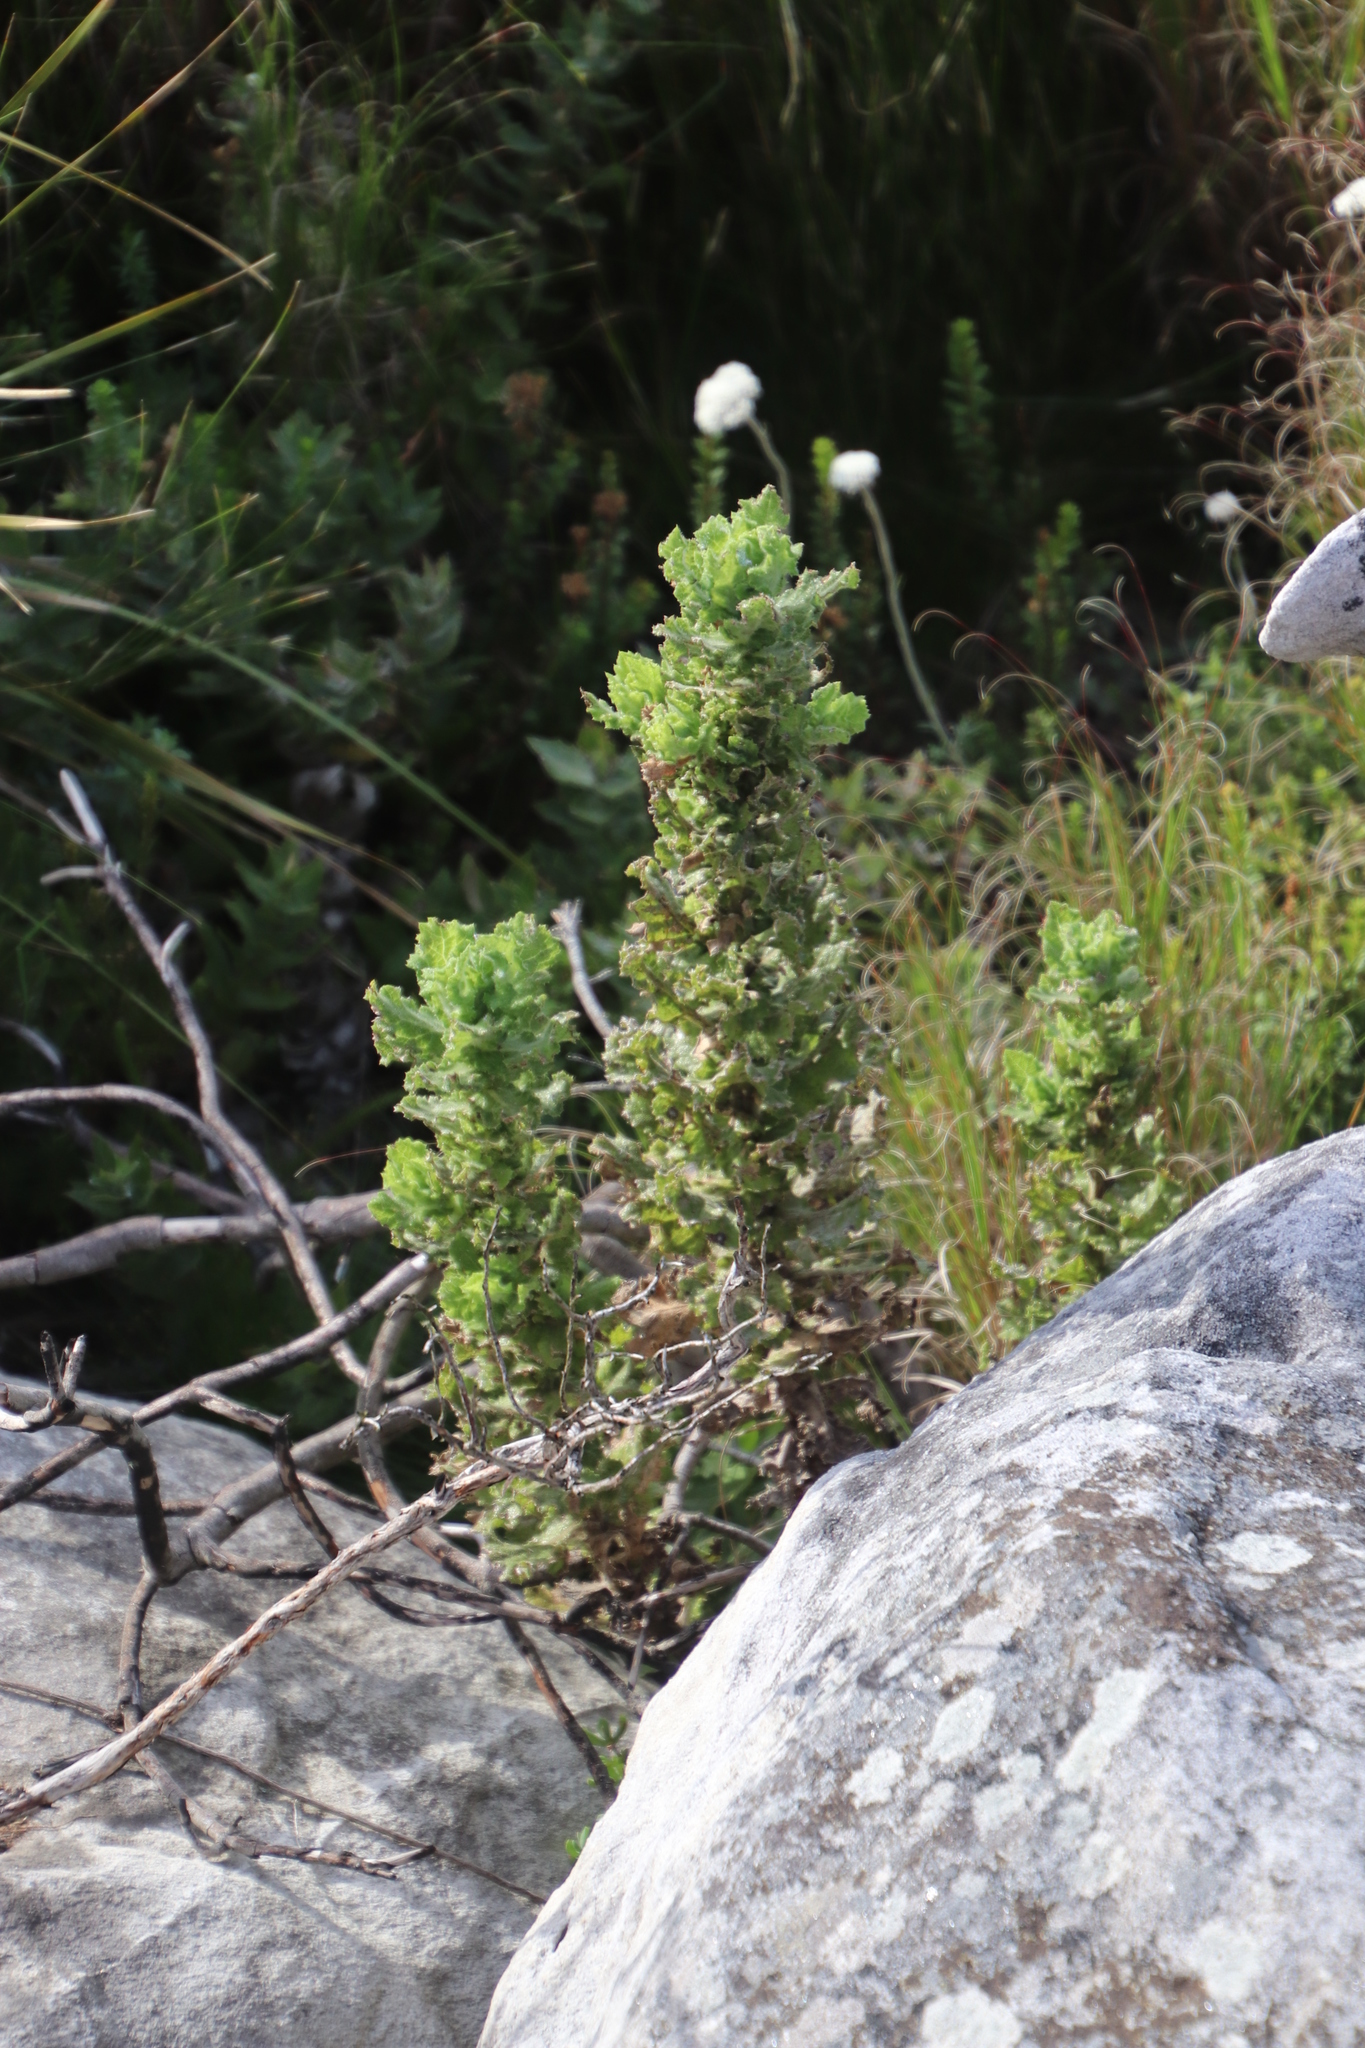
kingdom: Plantae
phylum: Tracheophyta
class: Magnoliopsida
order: Asterales
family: Asteraceae
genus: Senecio
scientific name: Senecio rigidus
